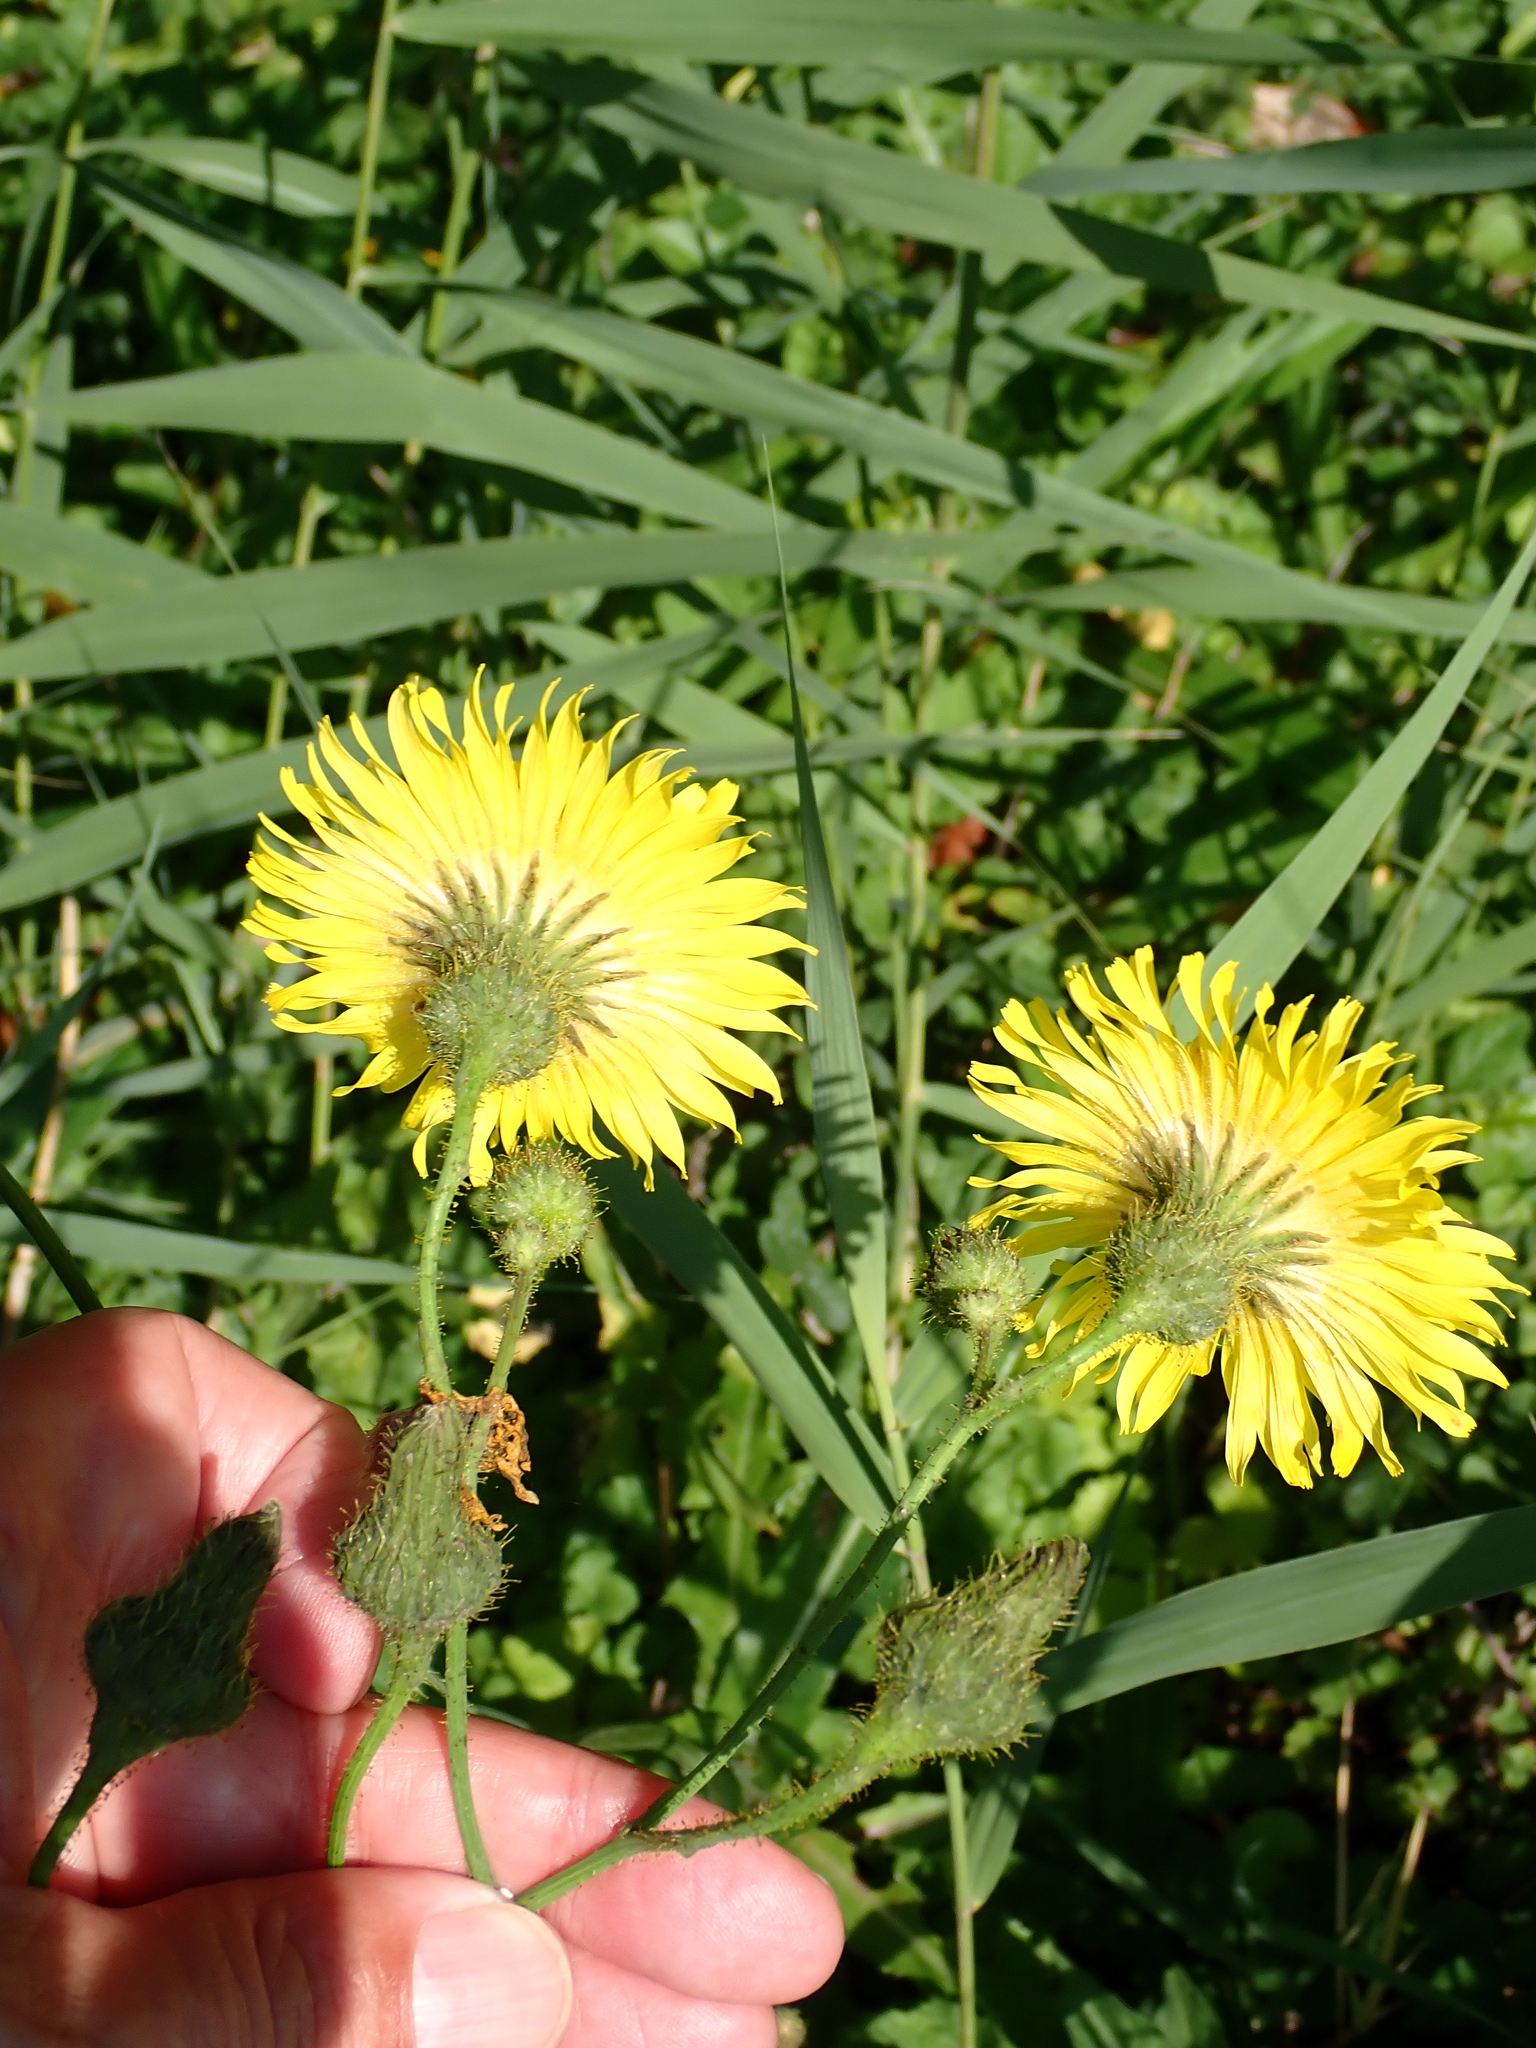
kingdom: Plantae
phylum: Tracheophyta
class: Magnoliopsida
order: Asterales
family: Asteraceae
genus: Sonchus
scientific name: Sonchus arvensis
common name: Perennial sow-thistle
